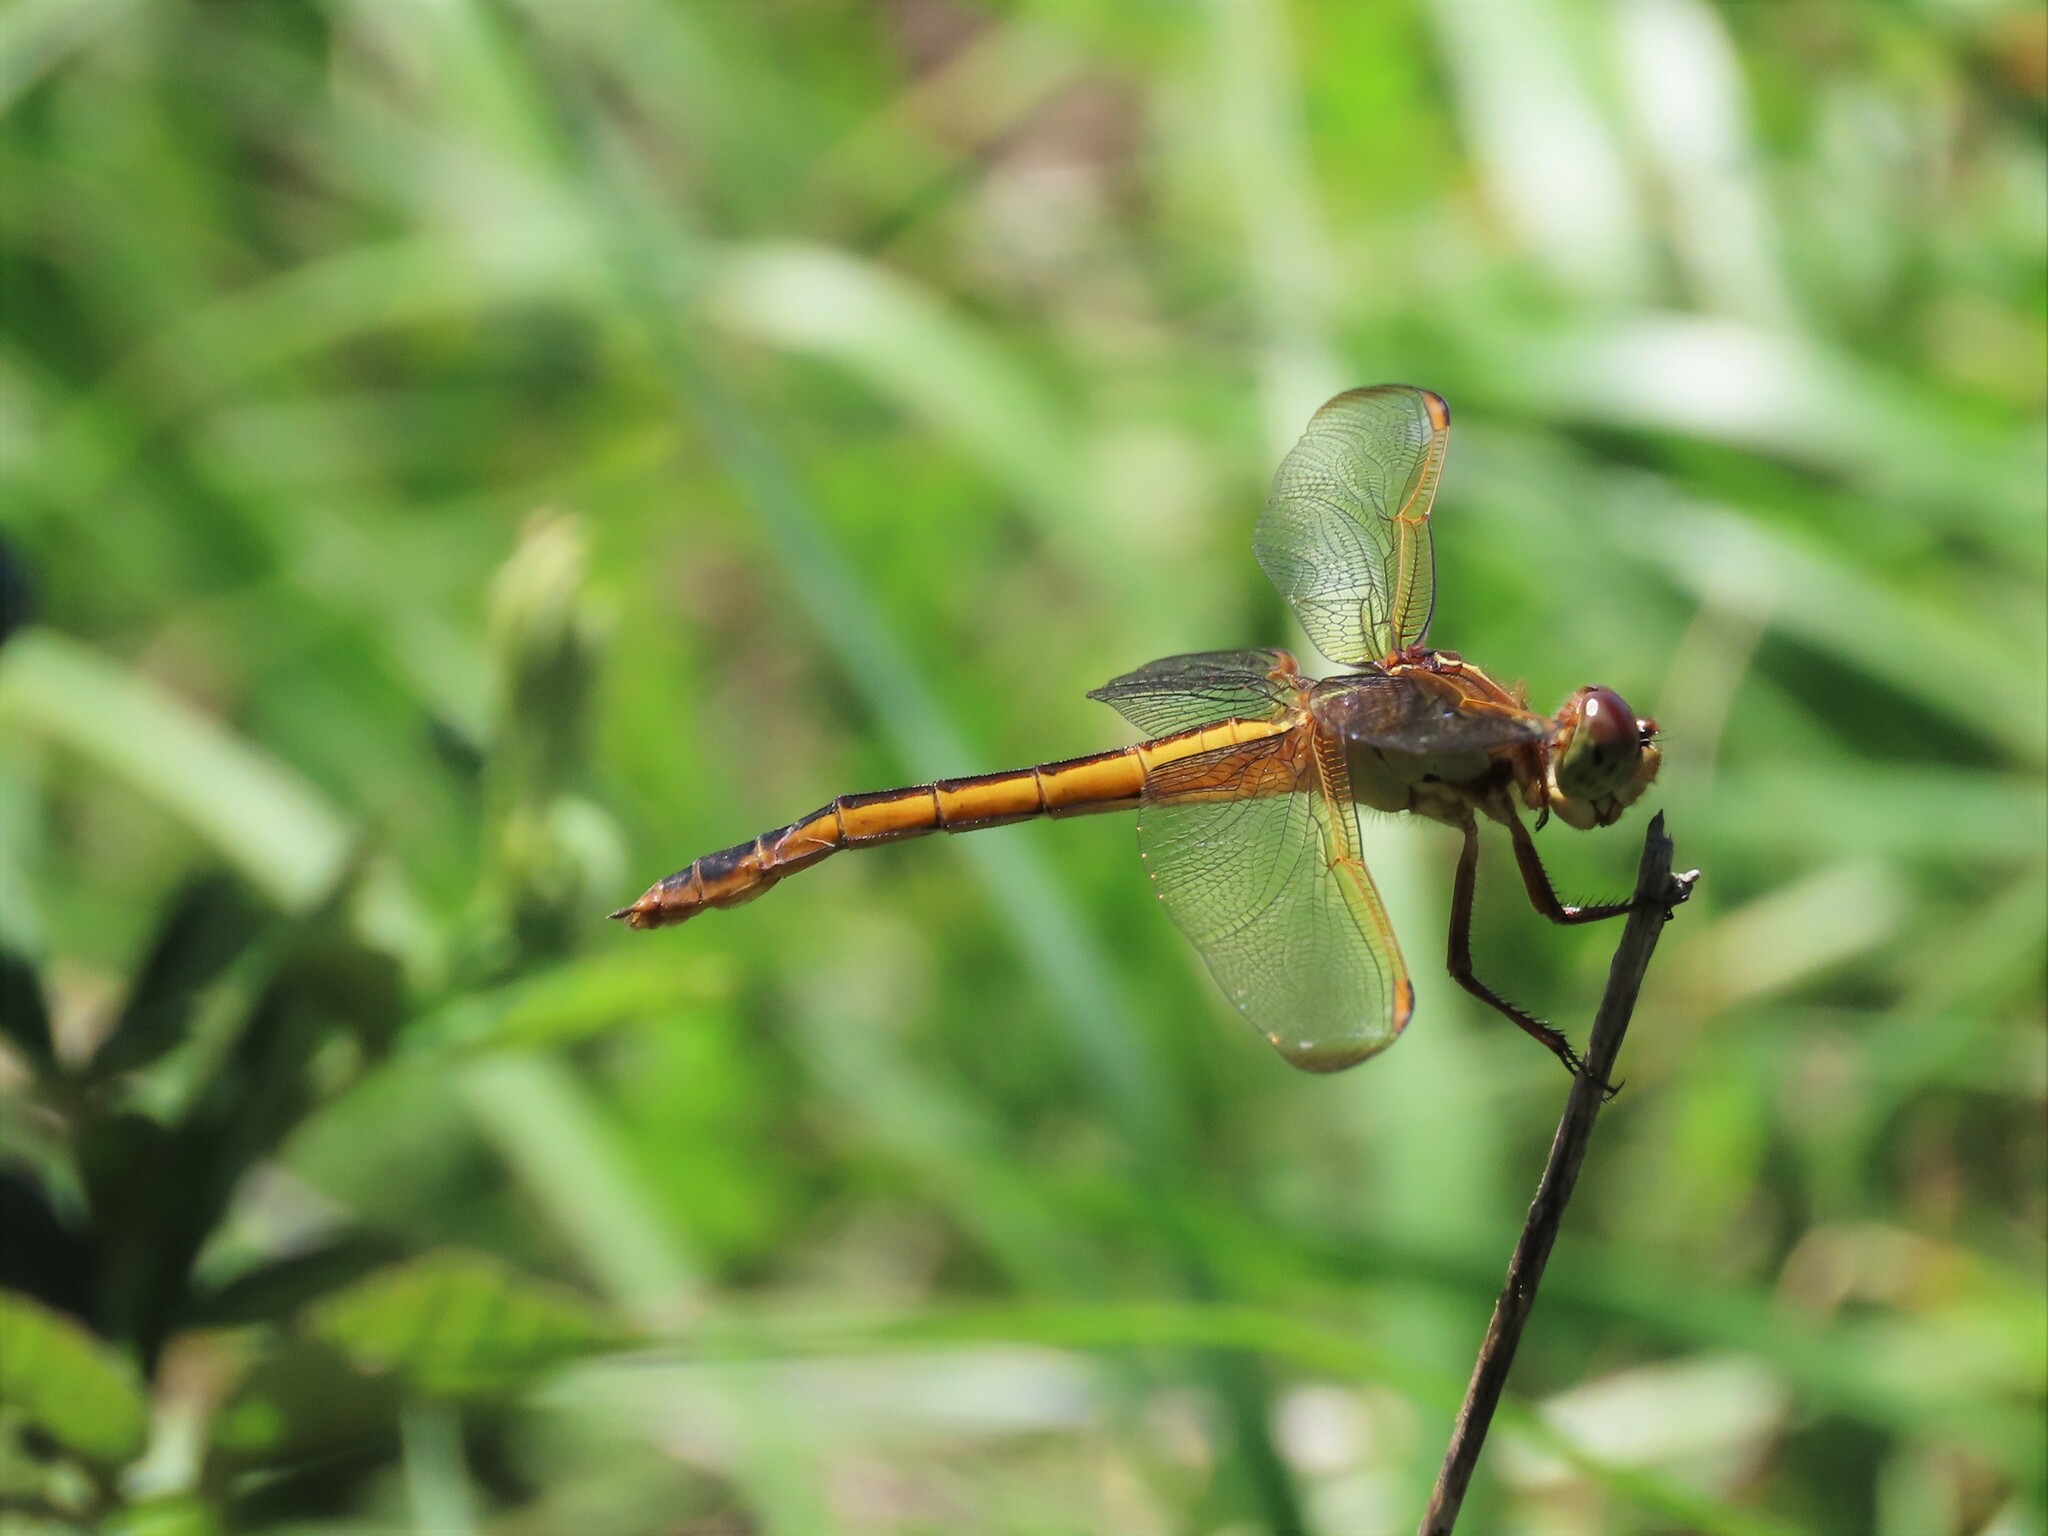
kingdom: Animalia
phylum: Arthropoda
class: Insecta
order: Odonata
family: Libellulidae
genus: Libellula
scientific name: Libellula needhami
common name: Needham's skimmer
